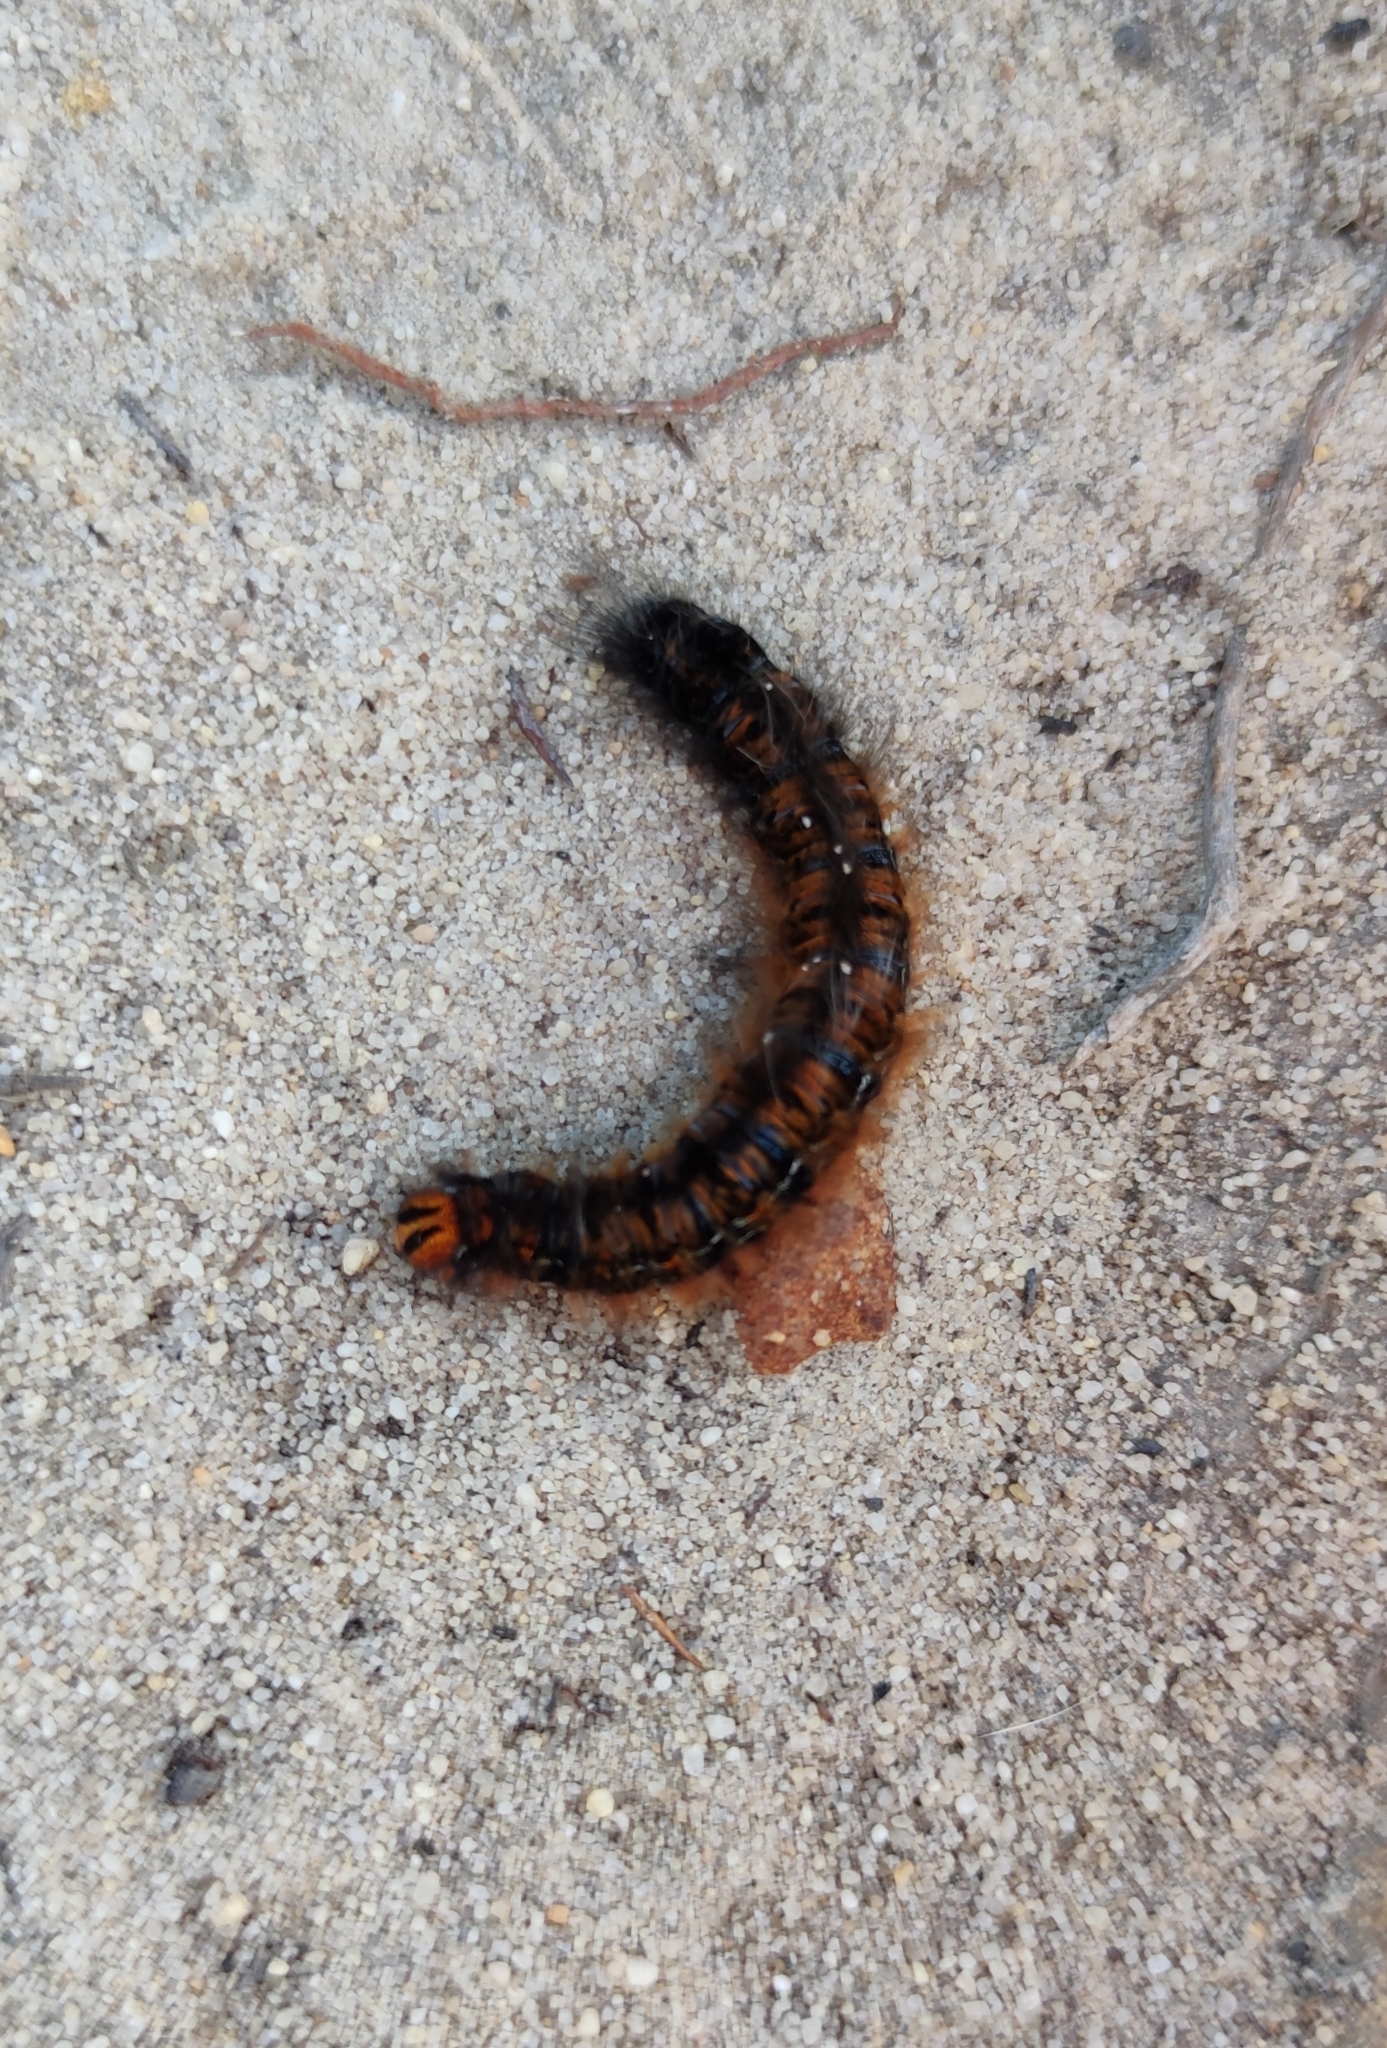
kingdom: Animalia
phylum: Arthropoda
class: Insecta
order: Lepidoptera
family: Lasiocampidae
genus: Mesocelis
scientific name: Mesocelis monticola
